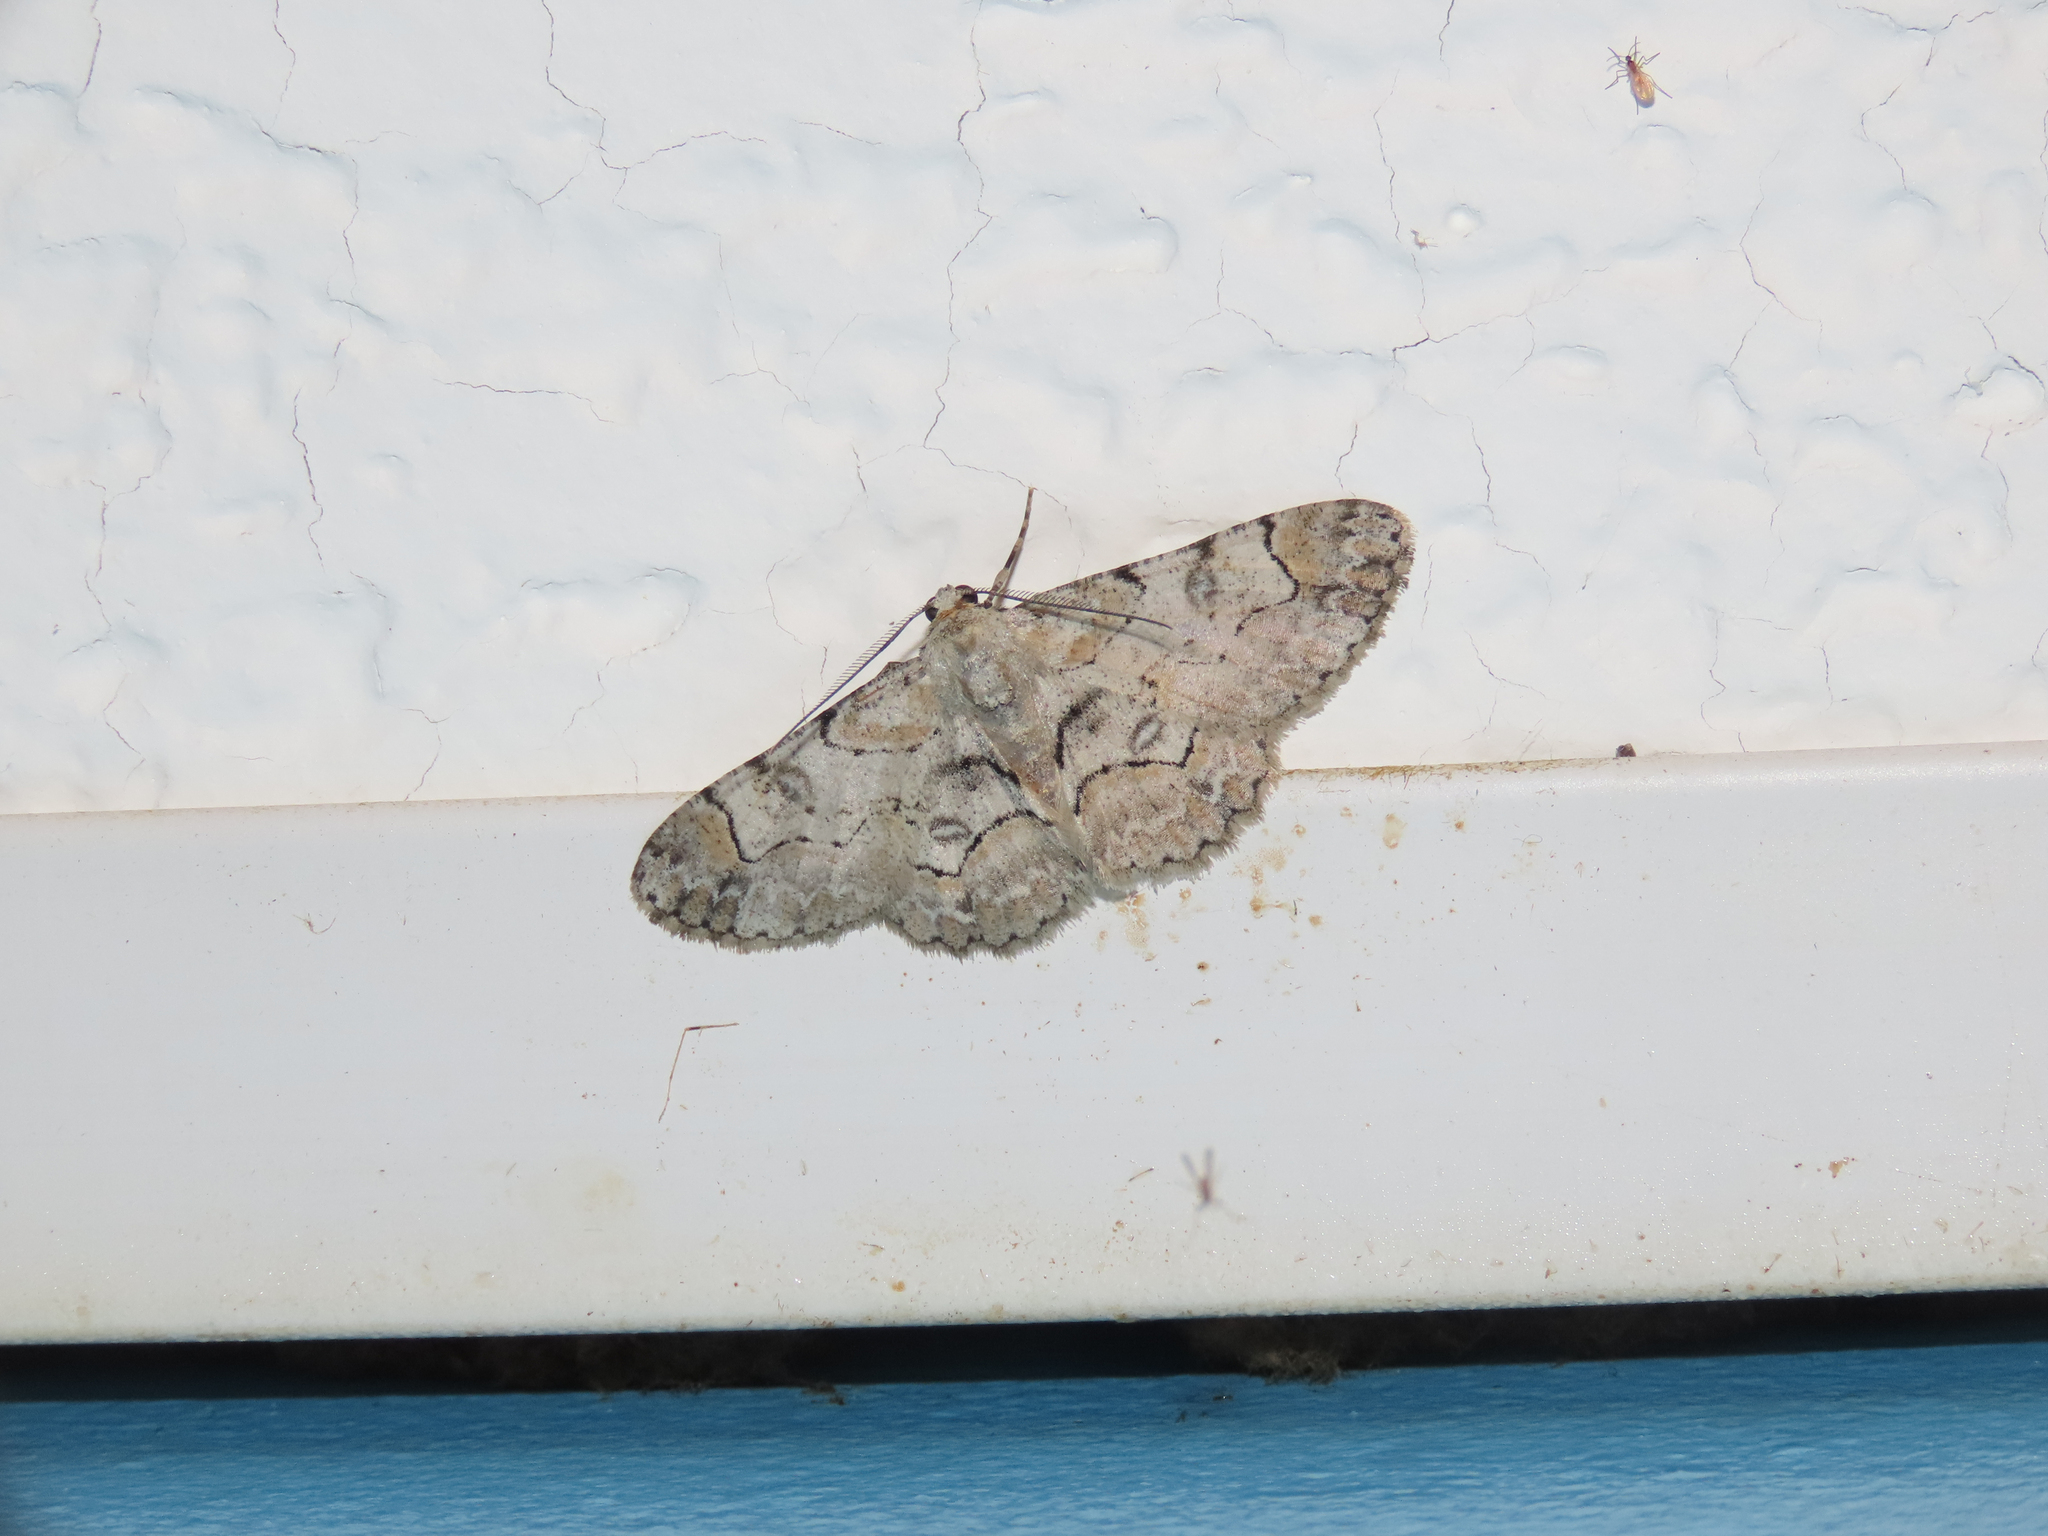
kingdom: Animalia
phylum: Arthropoda
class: Insecta
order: Lepidoptera
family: Geometridae
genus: Iridopsis
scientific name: Iridopsis larvaria
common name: Bent-line gray
